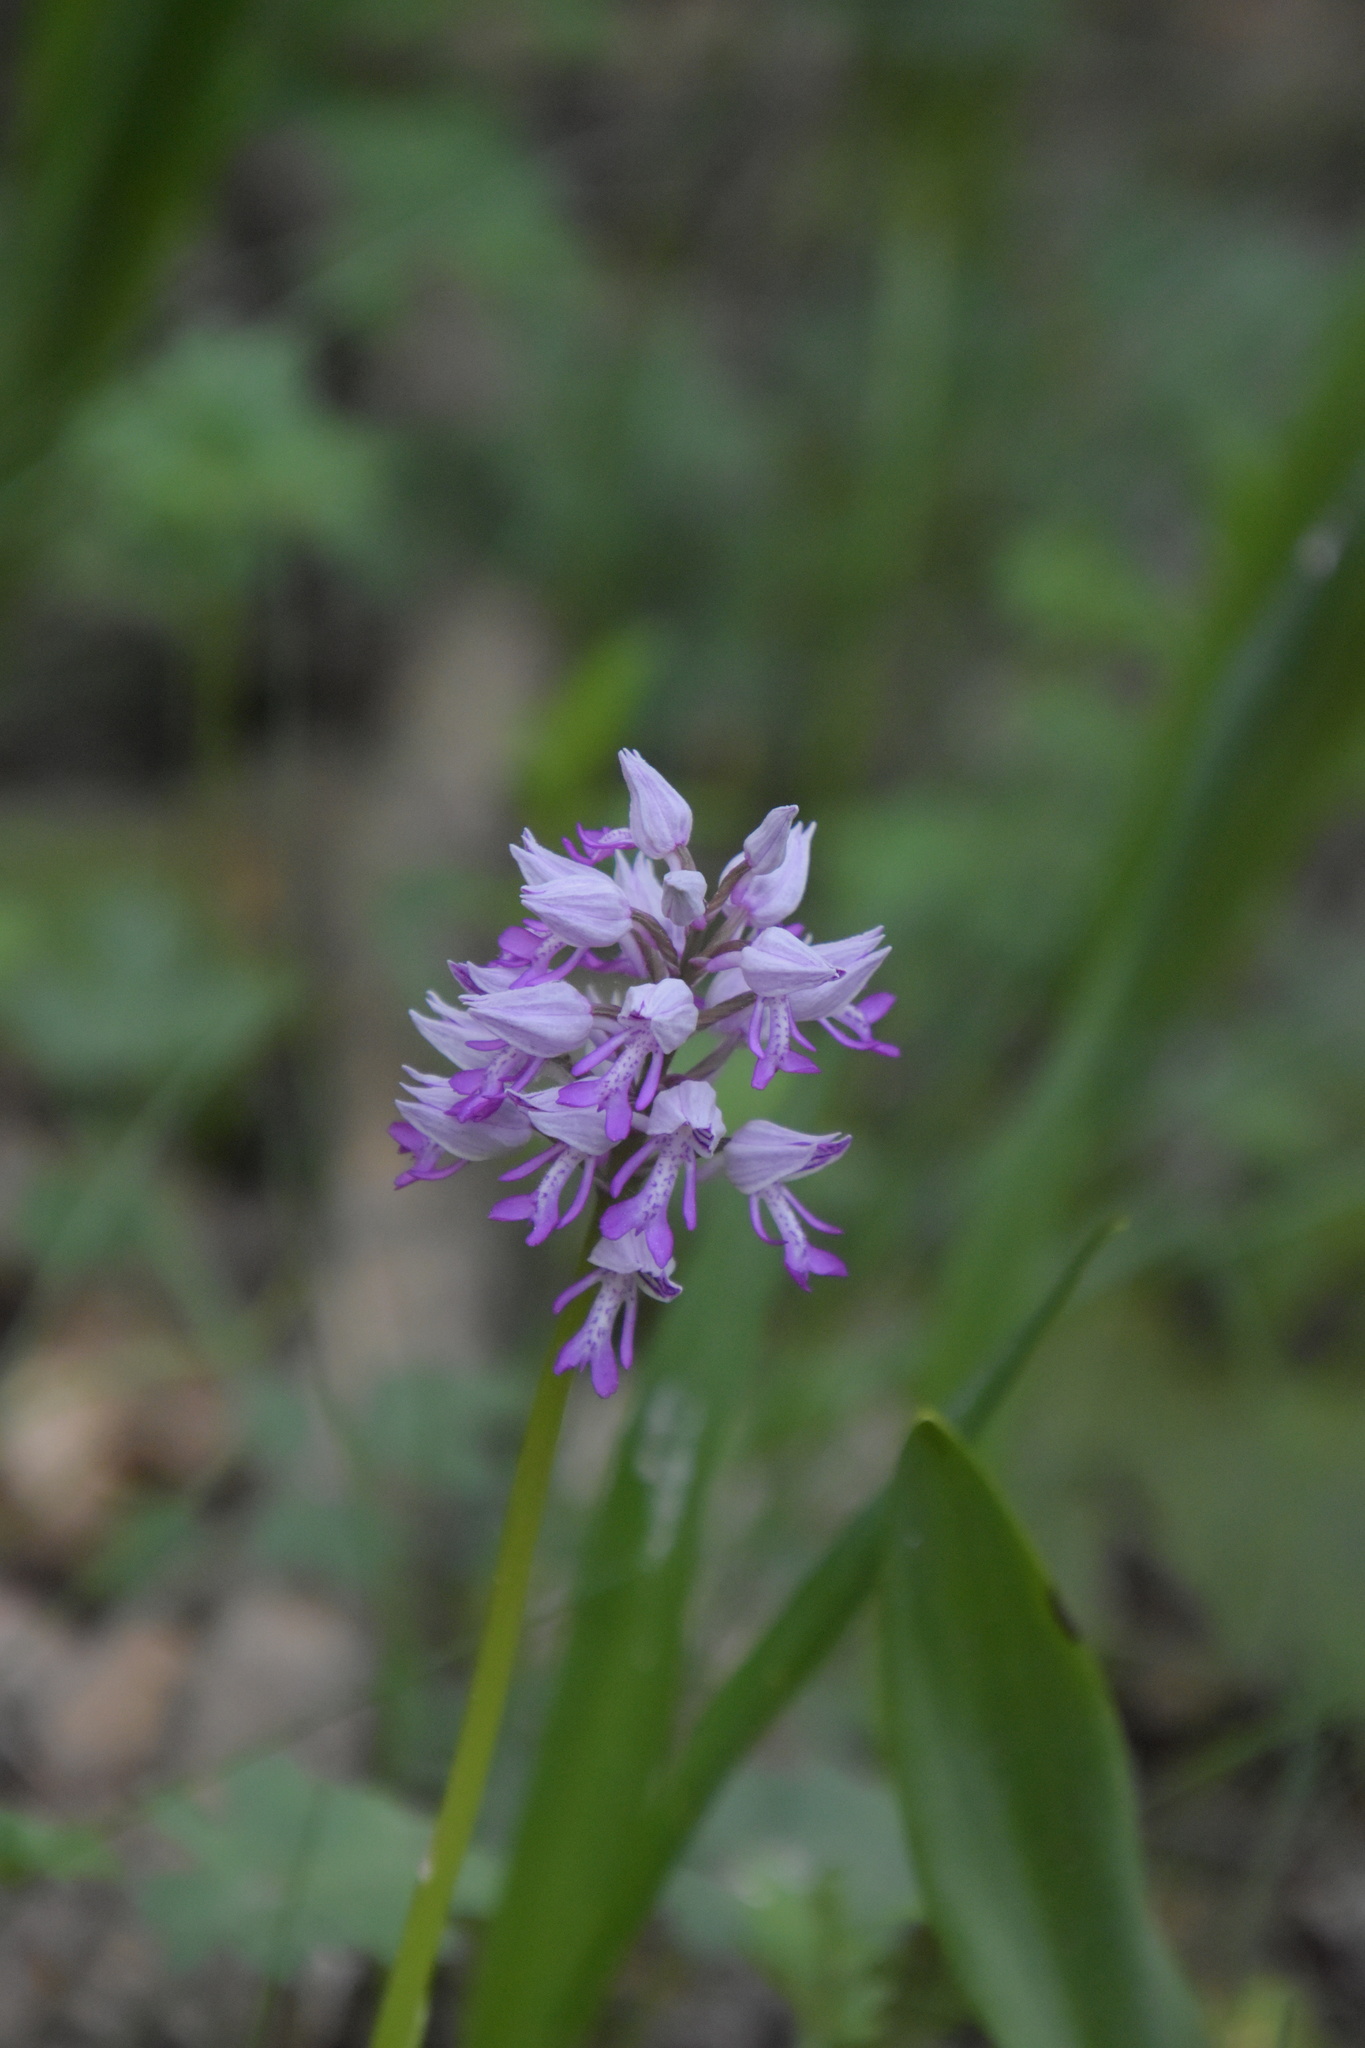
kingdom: Plantae
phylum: Tracheophyta
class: Liliopsida
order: Asparagales
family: Orchidaceae
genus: Orchis
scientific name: Orchis militaris
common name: Military orchid
